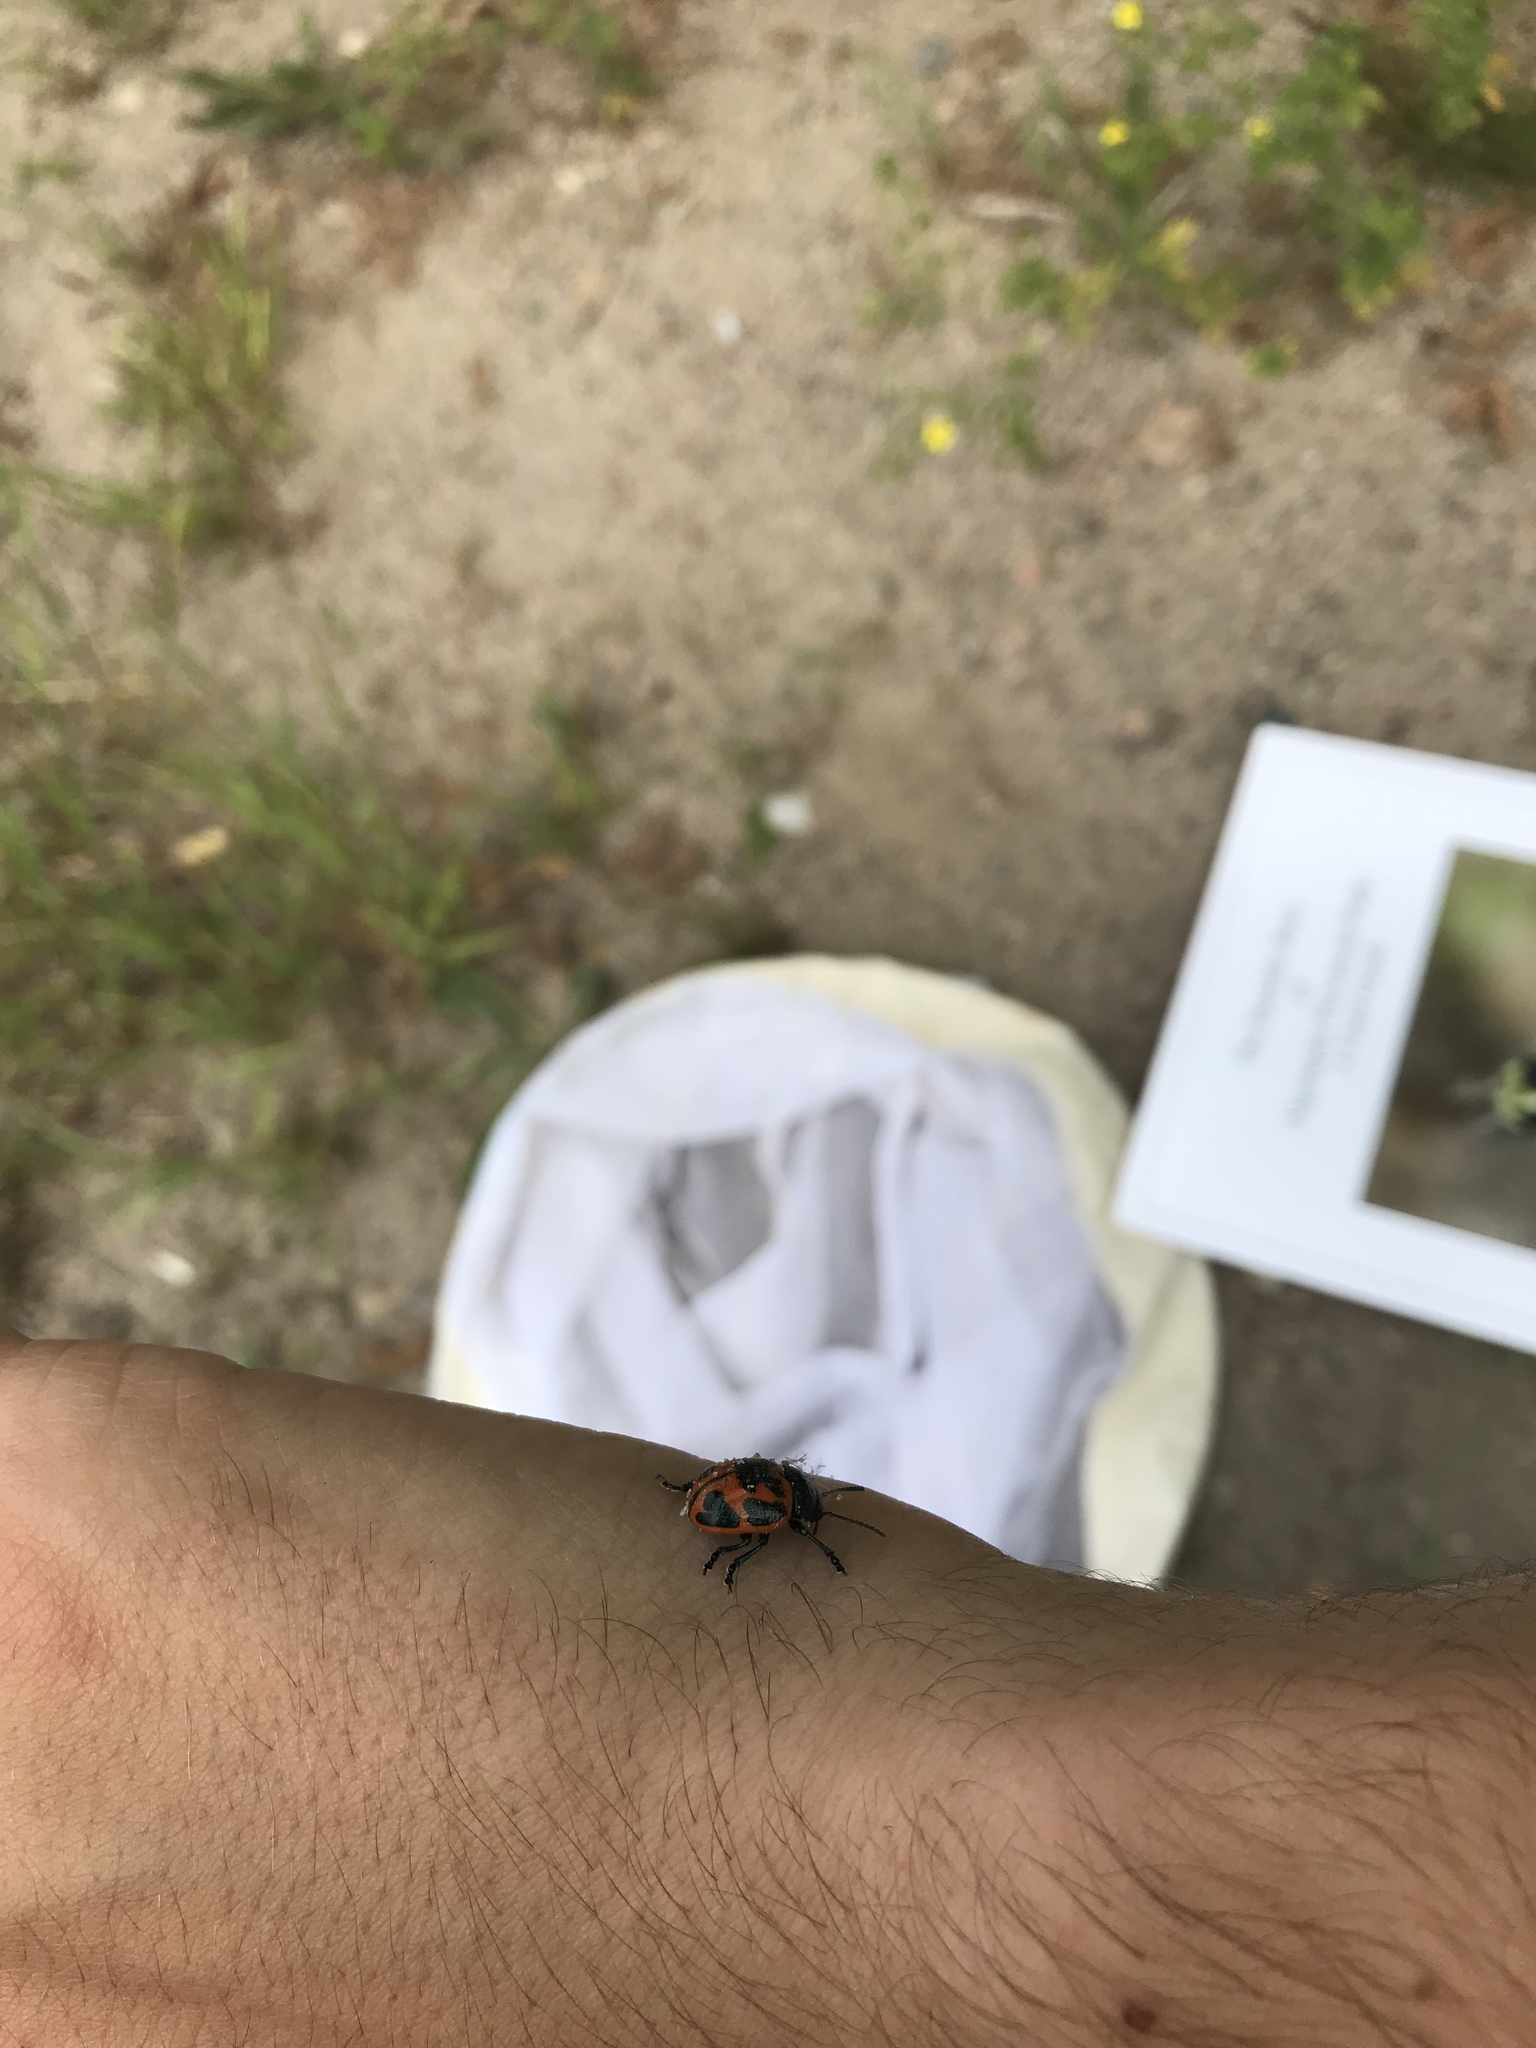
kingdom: Animalia
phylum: Arthropoda
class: Insecta
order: Coleoptera
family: Chrysomelidae
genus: Labidomera
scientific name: Labidomera clivicollis
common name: Swamp milkweed leaf beetle
